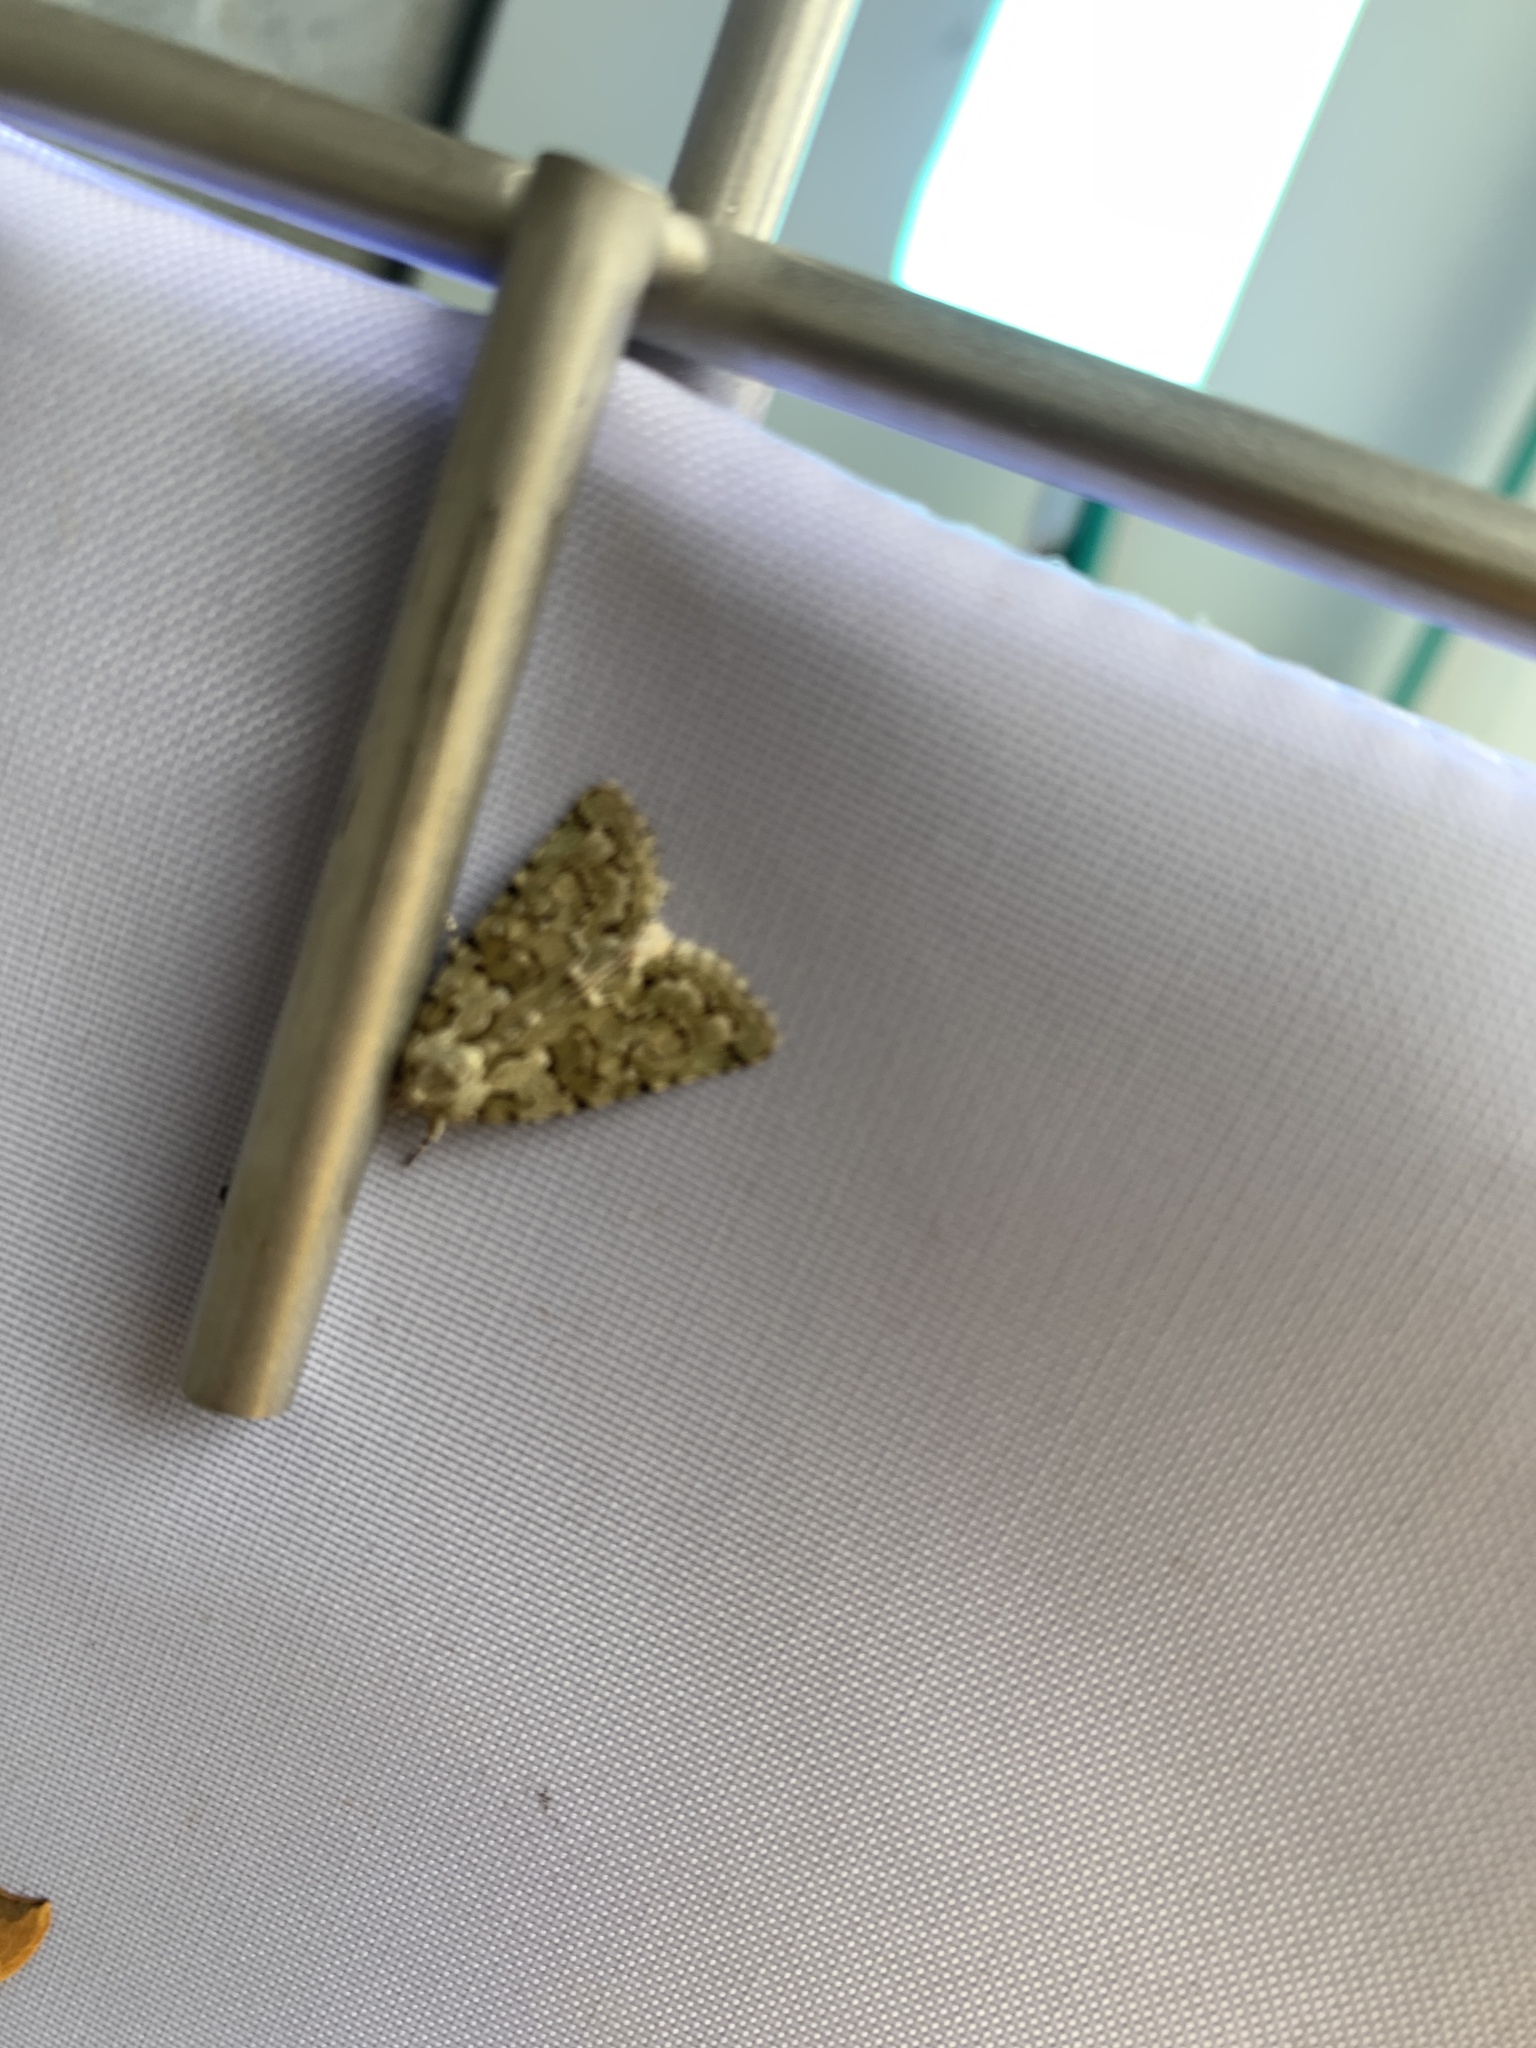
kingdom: Animalia
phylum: Arthropoda
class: Insecta
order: Lepidoptera
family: Noctuidae
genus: Nyctobrya
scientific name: Nyctobrya muralis
